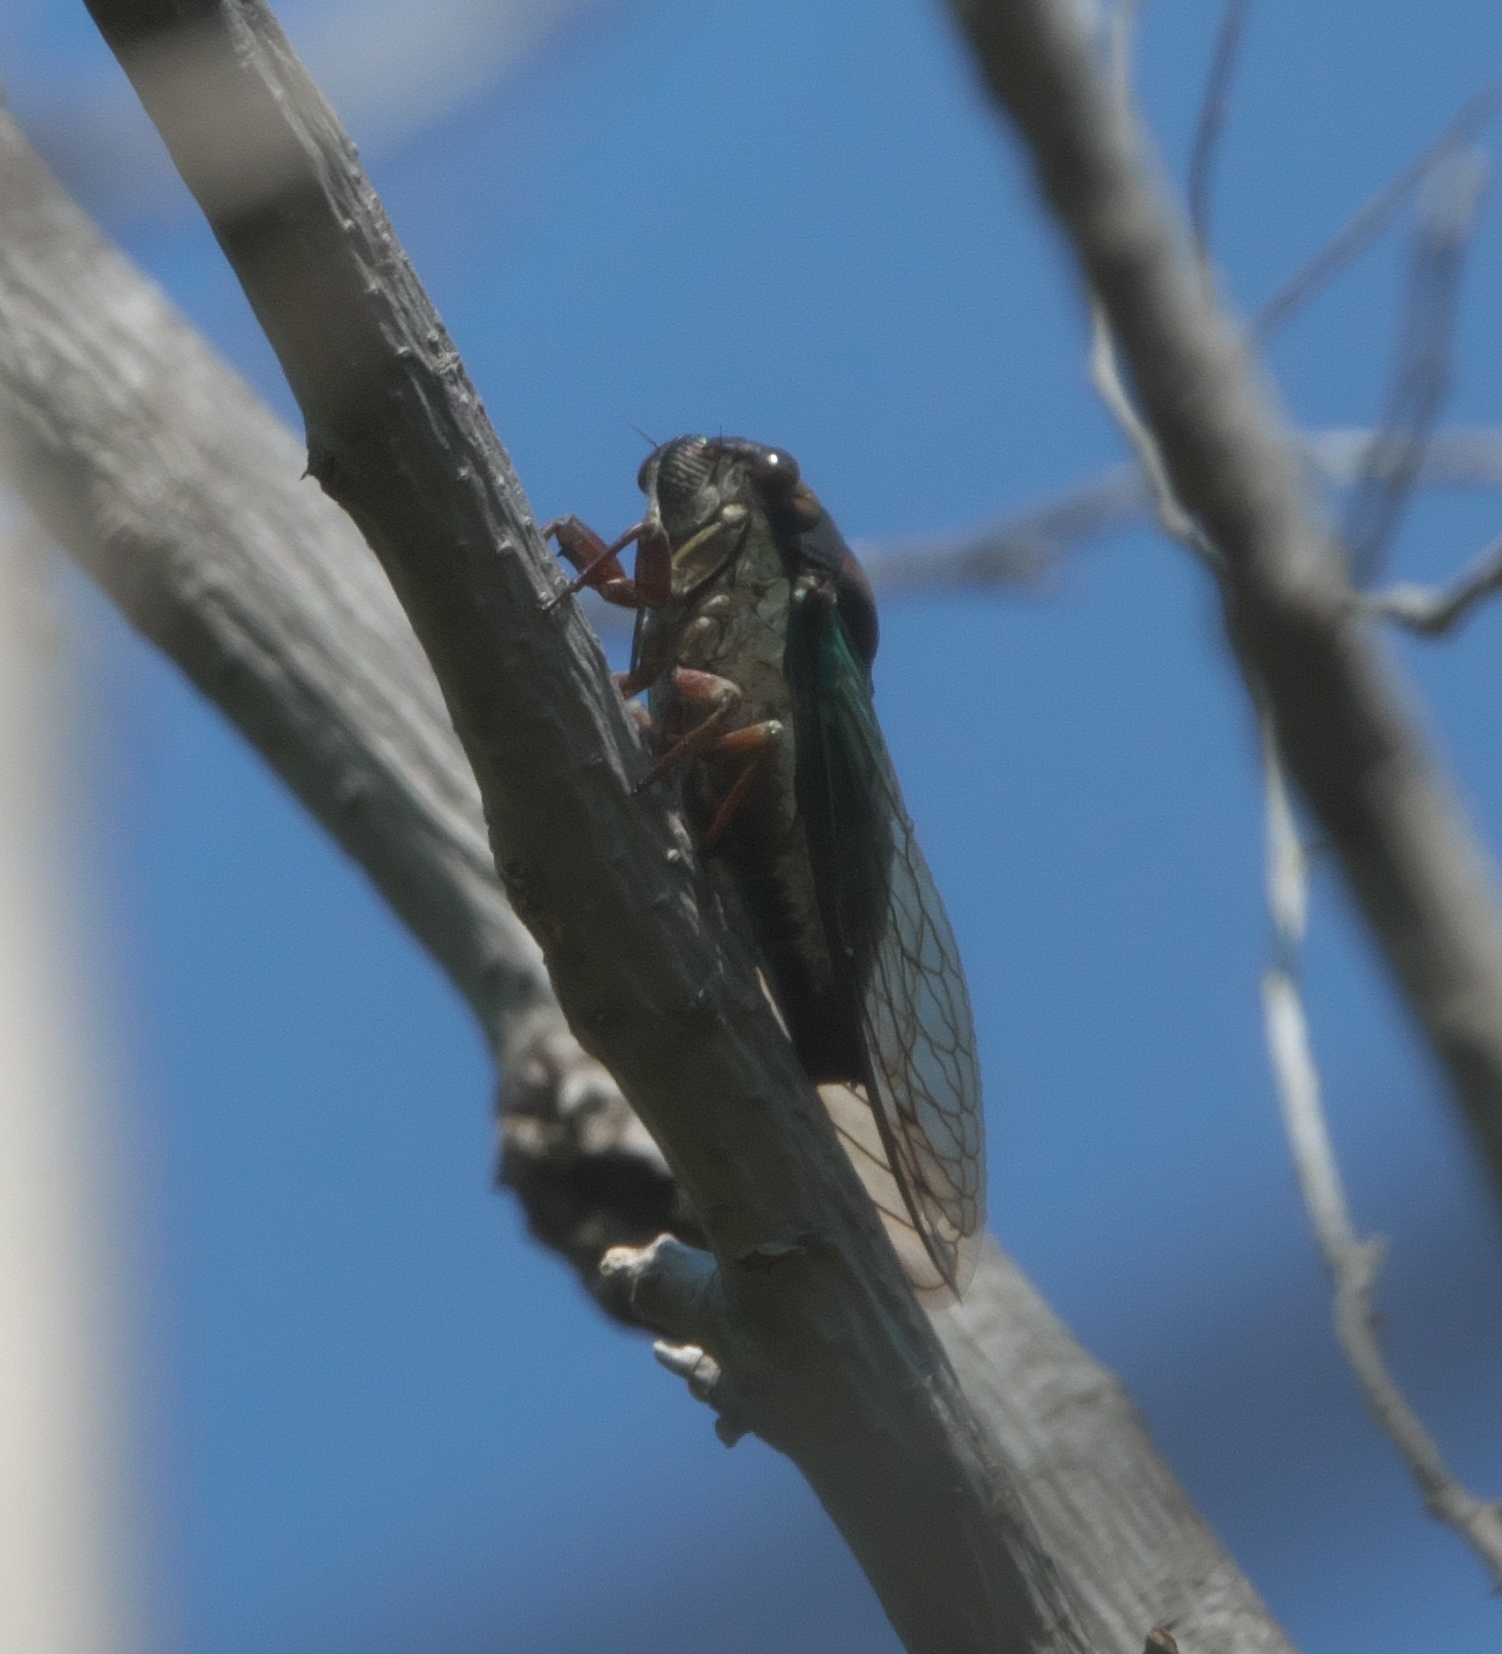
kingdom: Animalia
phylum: Arthropoda
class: Insecta
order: Hemiptera
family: Cicadidae
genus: Neotibicen
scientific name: Neotibicen lyricen
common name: Lyric cicada
